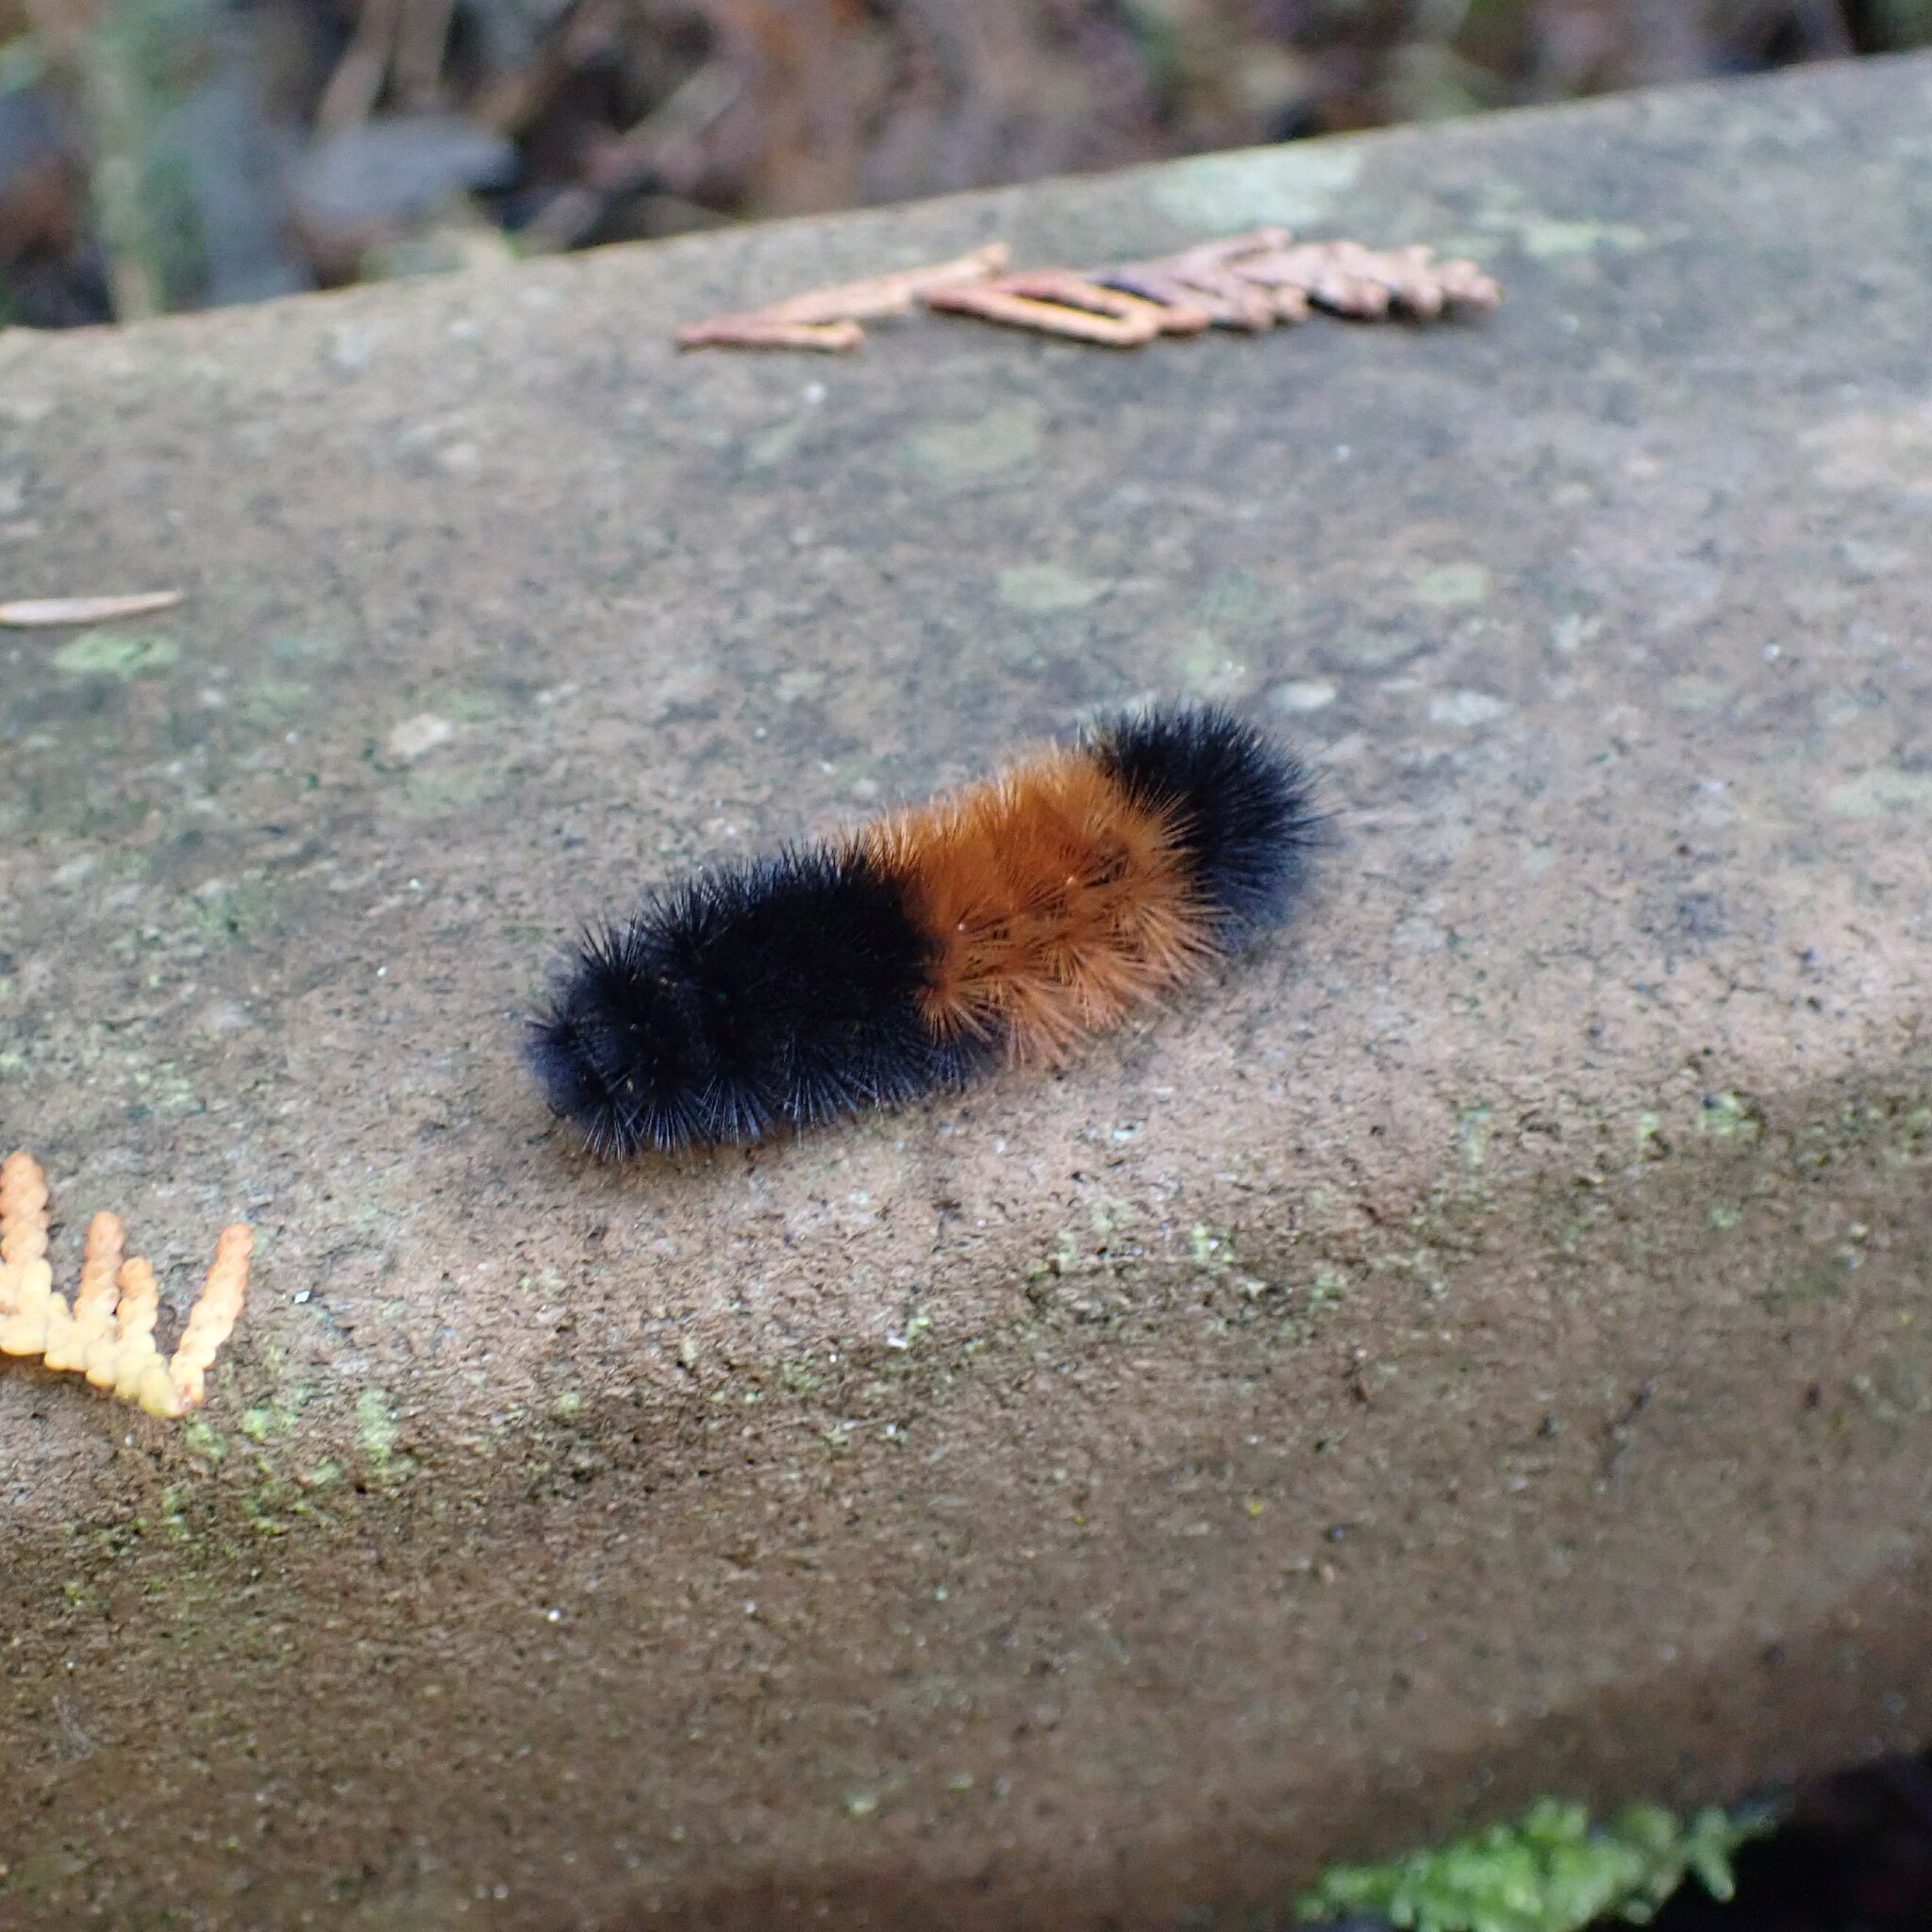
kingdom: Animalia
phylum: Arthropoda
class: Insecta
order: Lepidoptera
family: Erebidae
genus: Pyrrharctia
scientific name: Pyrrharctia isabella
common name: Isabella tiger moth
